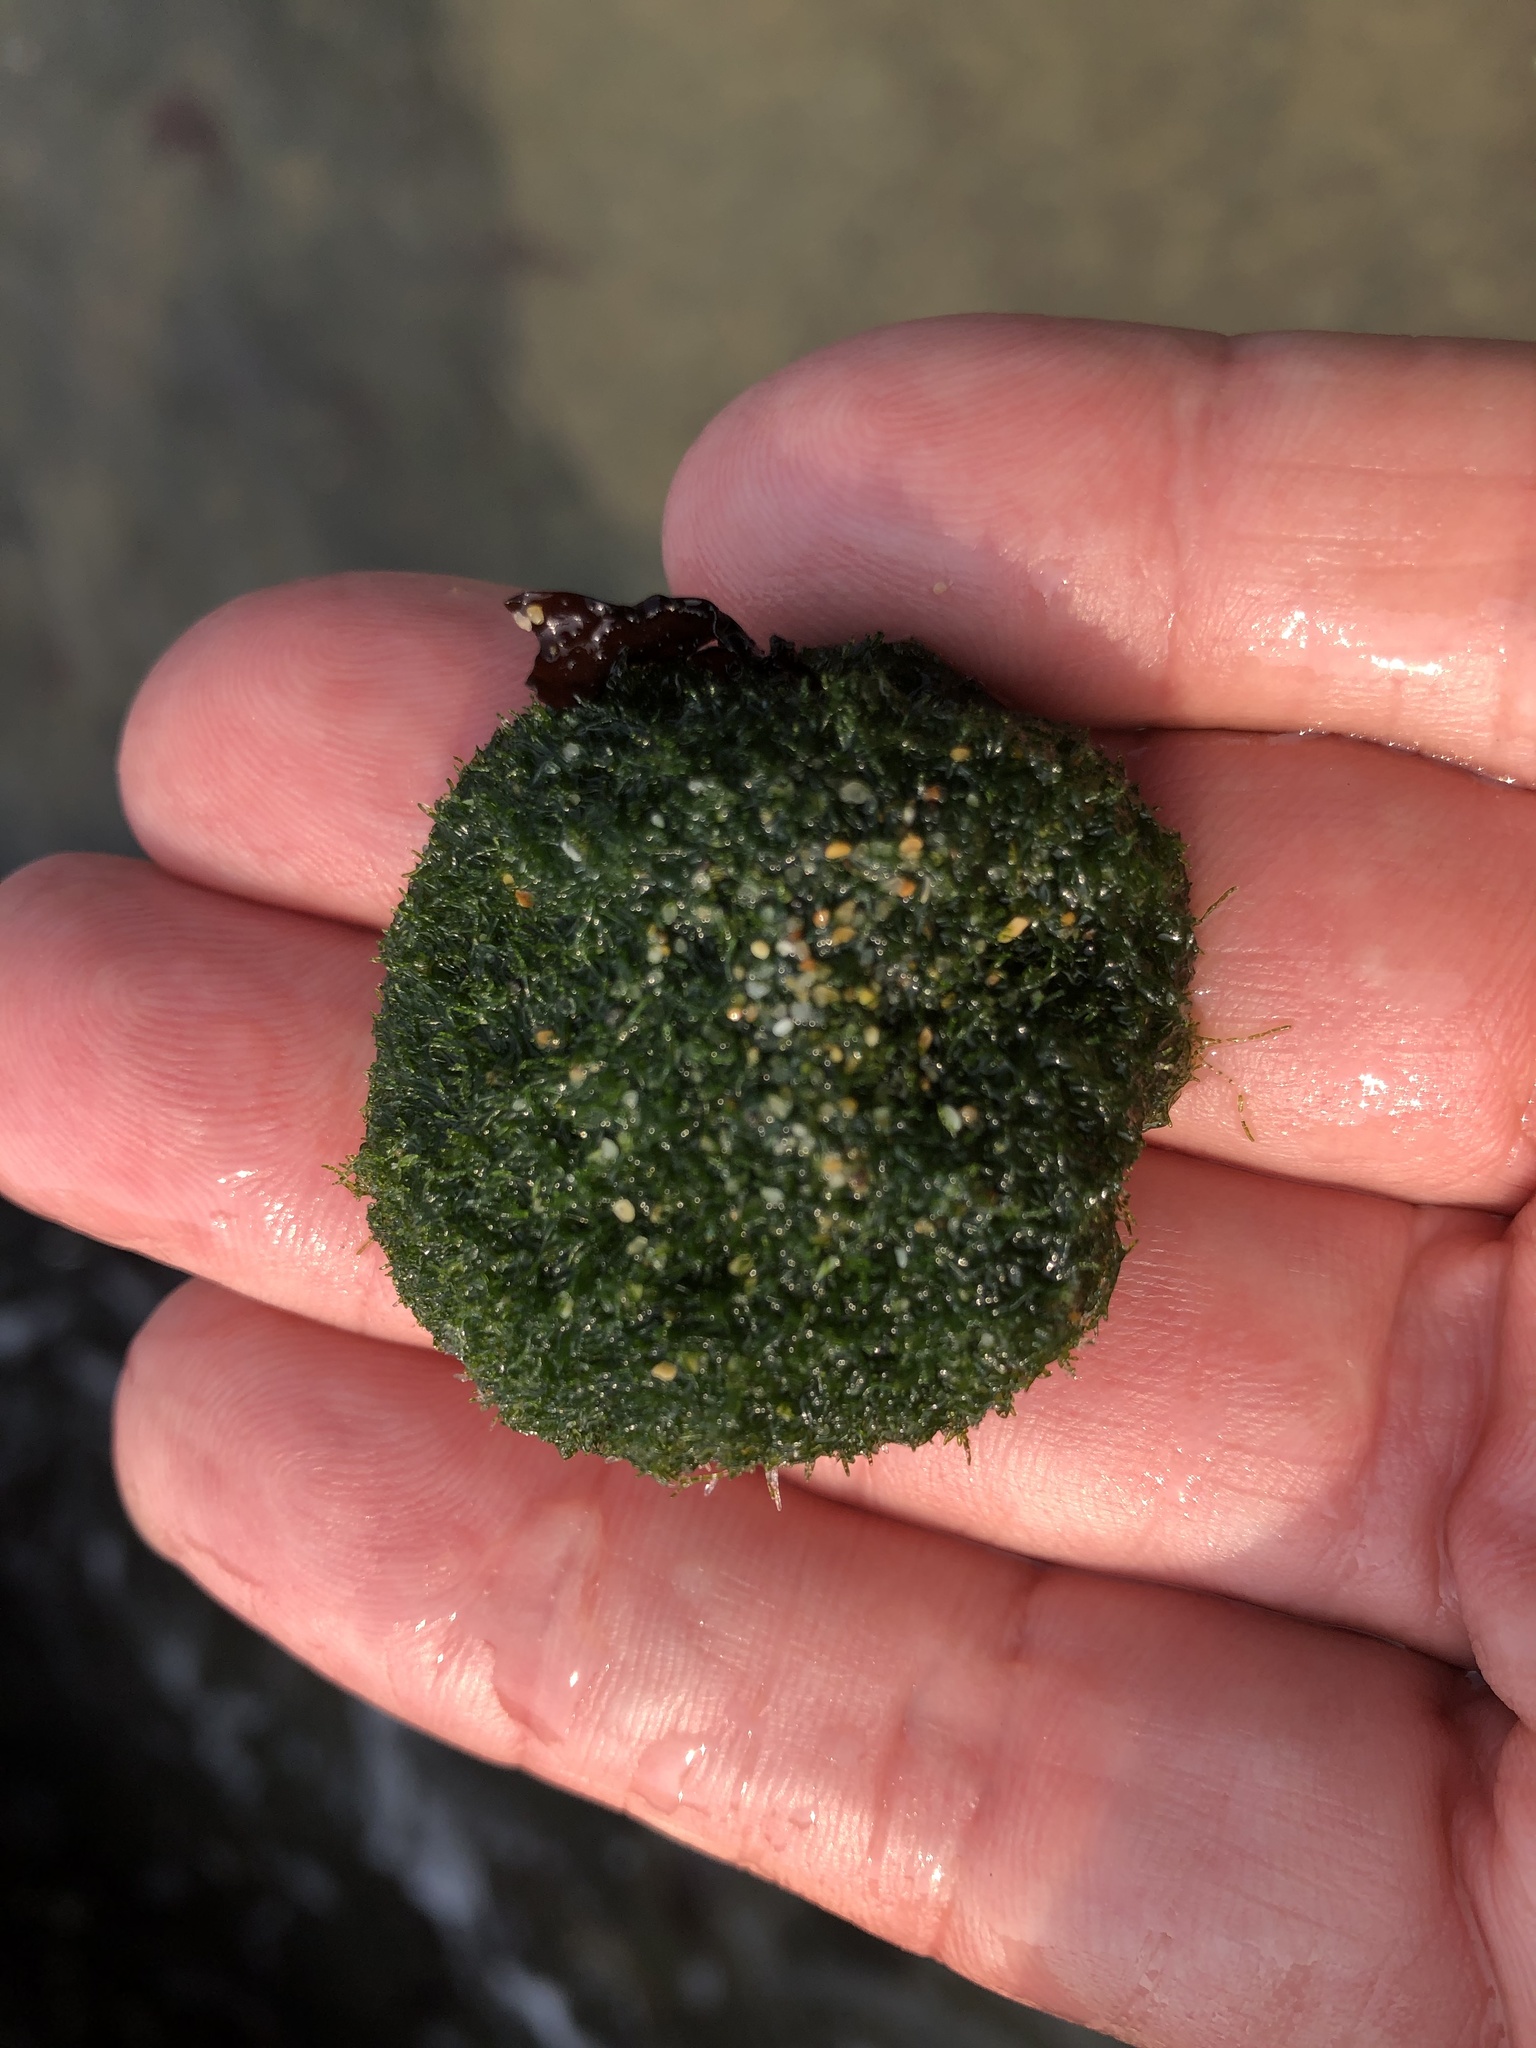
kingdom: Plantae
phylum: Chlorophyta
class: Ulvophyceae
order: Cladophorales
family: Cladophoraceae
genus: Cladophora
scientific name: Cladophora columbiana
